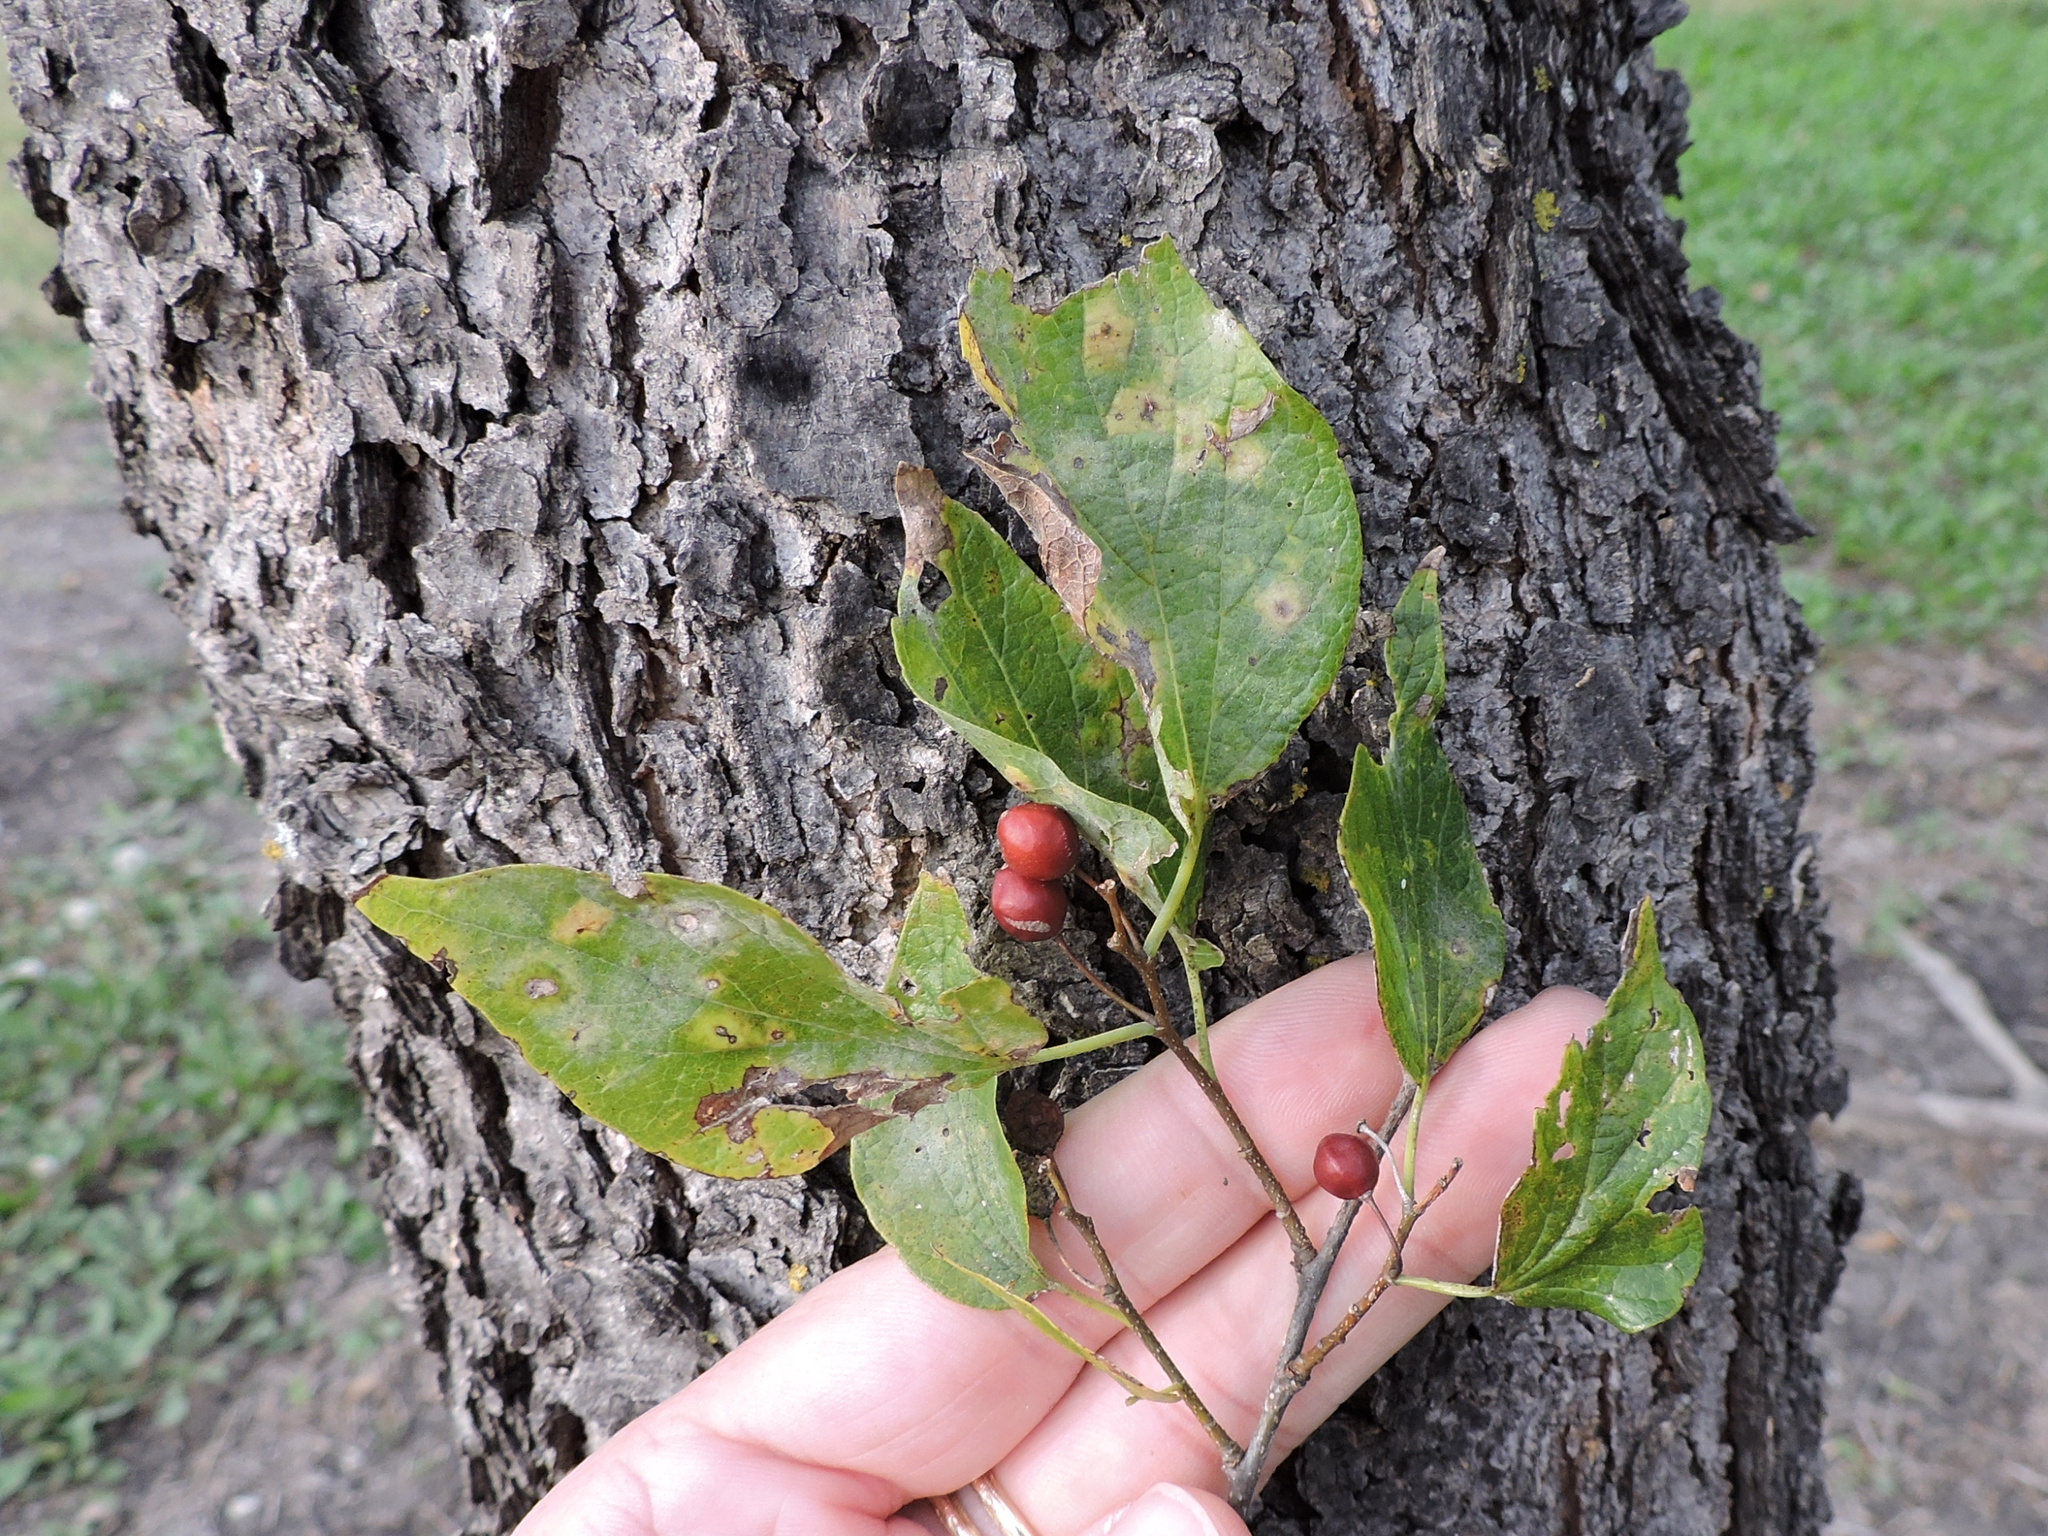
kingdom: Plantae
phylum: Tracheophyta
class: Magnoliopsida
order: Rosales
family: Cannabaceae
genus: Celtis
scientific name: Celtis laevigata
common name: Sugarberry
